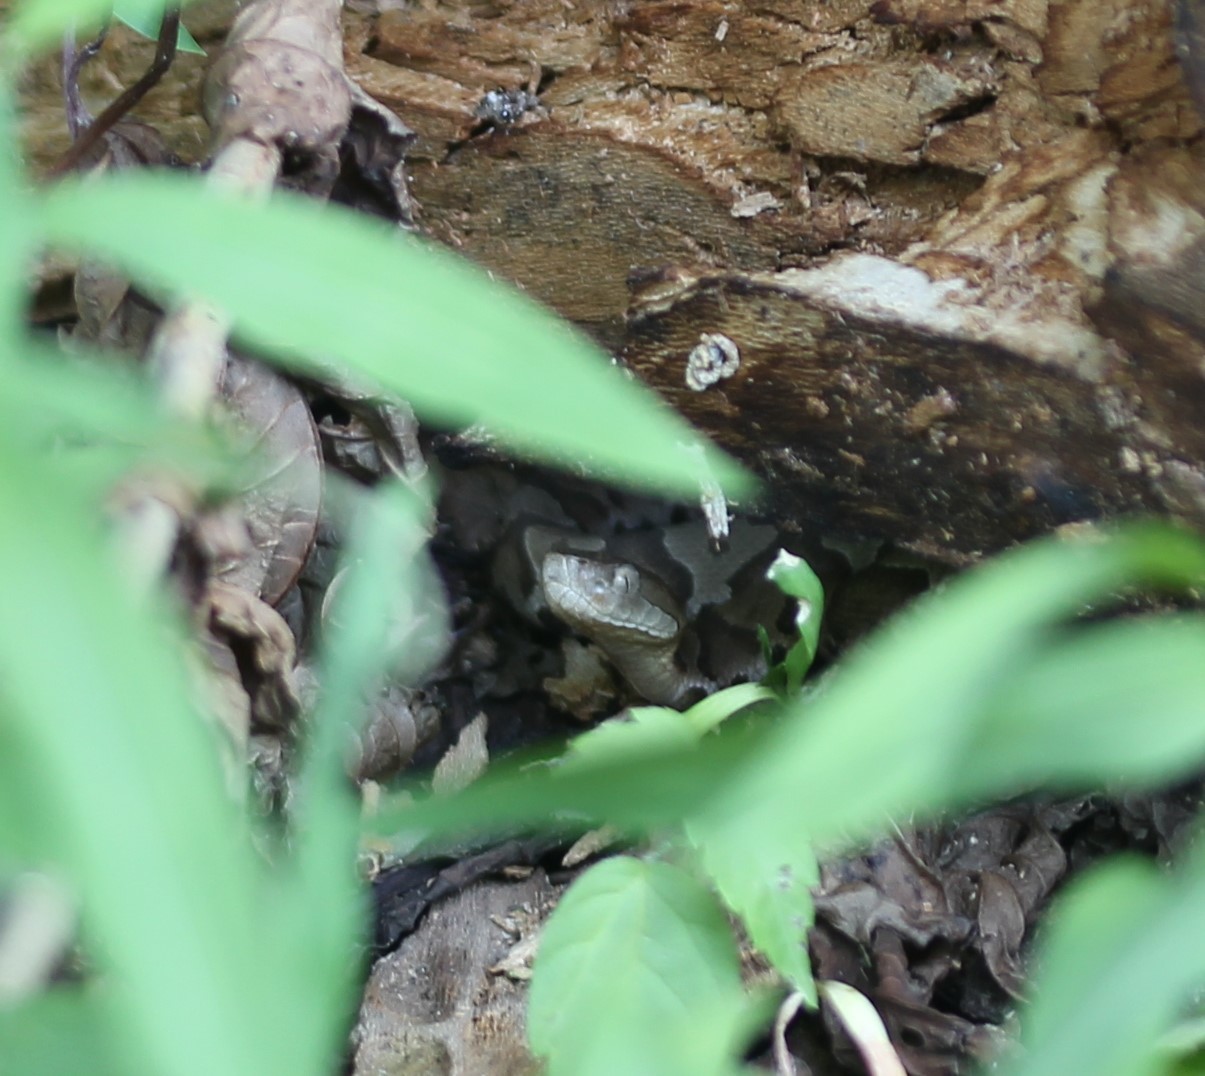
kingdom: Animalia
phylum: Chordata
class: Squamata
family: Viperidae
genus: Agkistrodon
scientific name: Agkistrodon contortrix
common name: Northern copperhead
